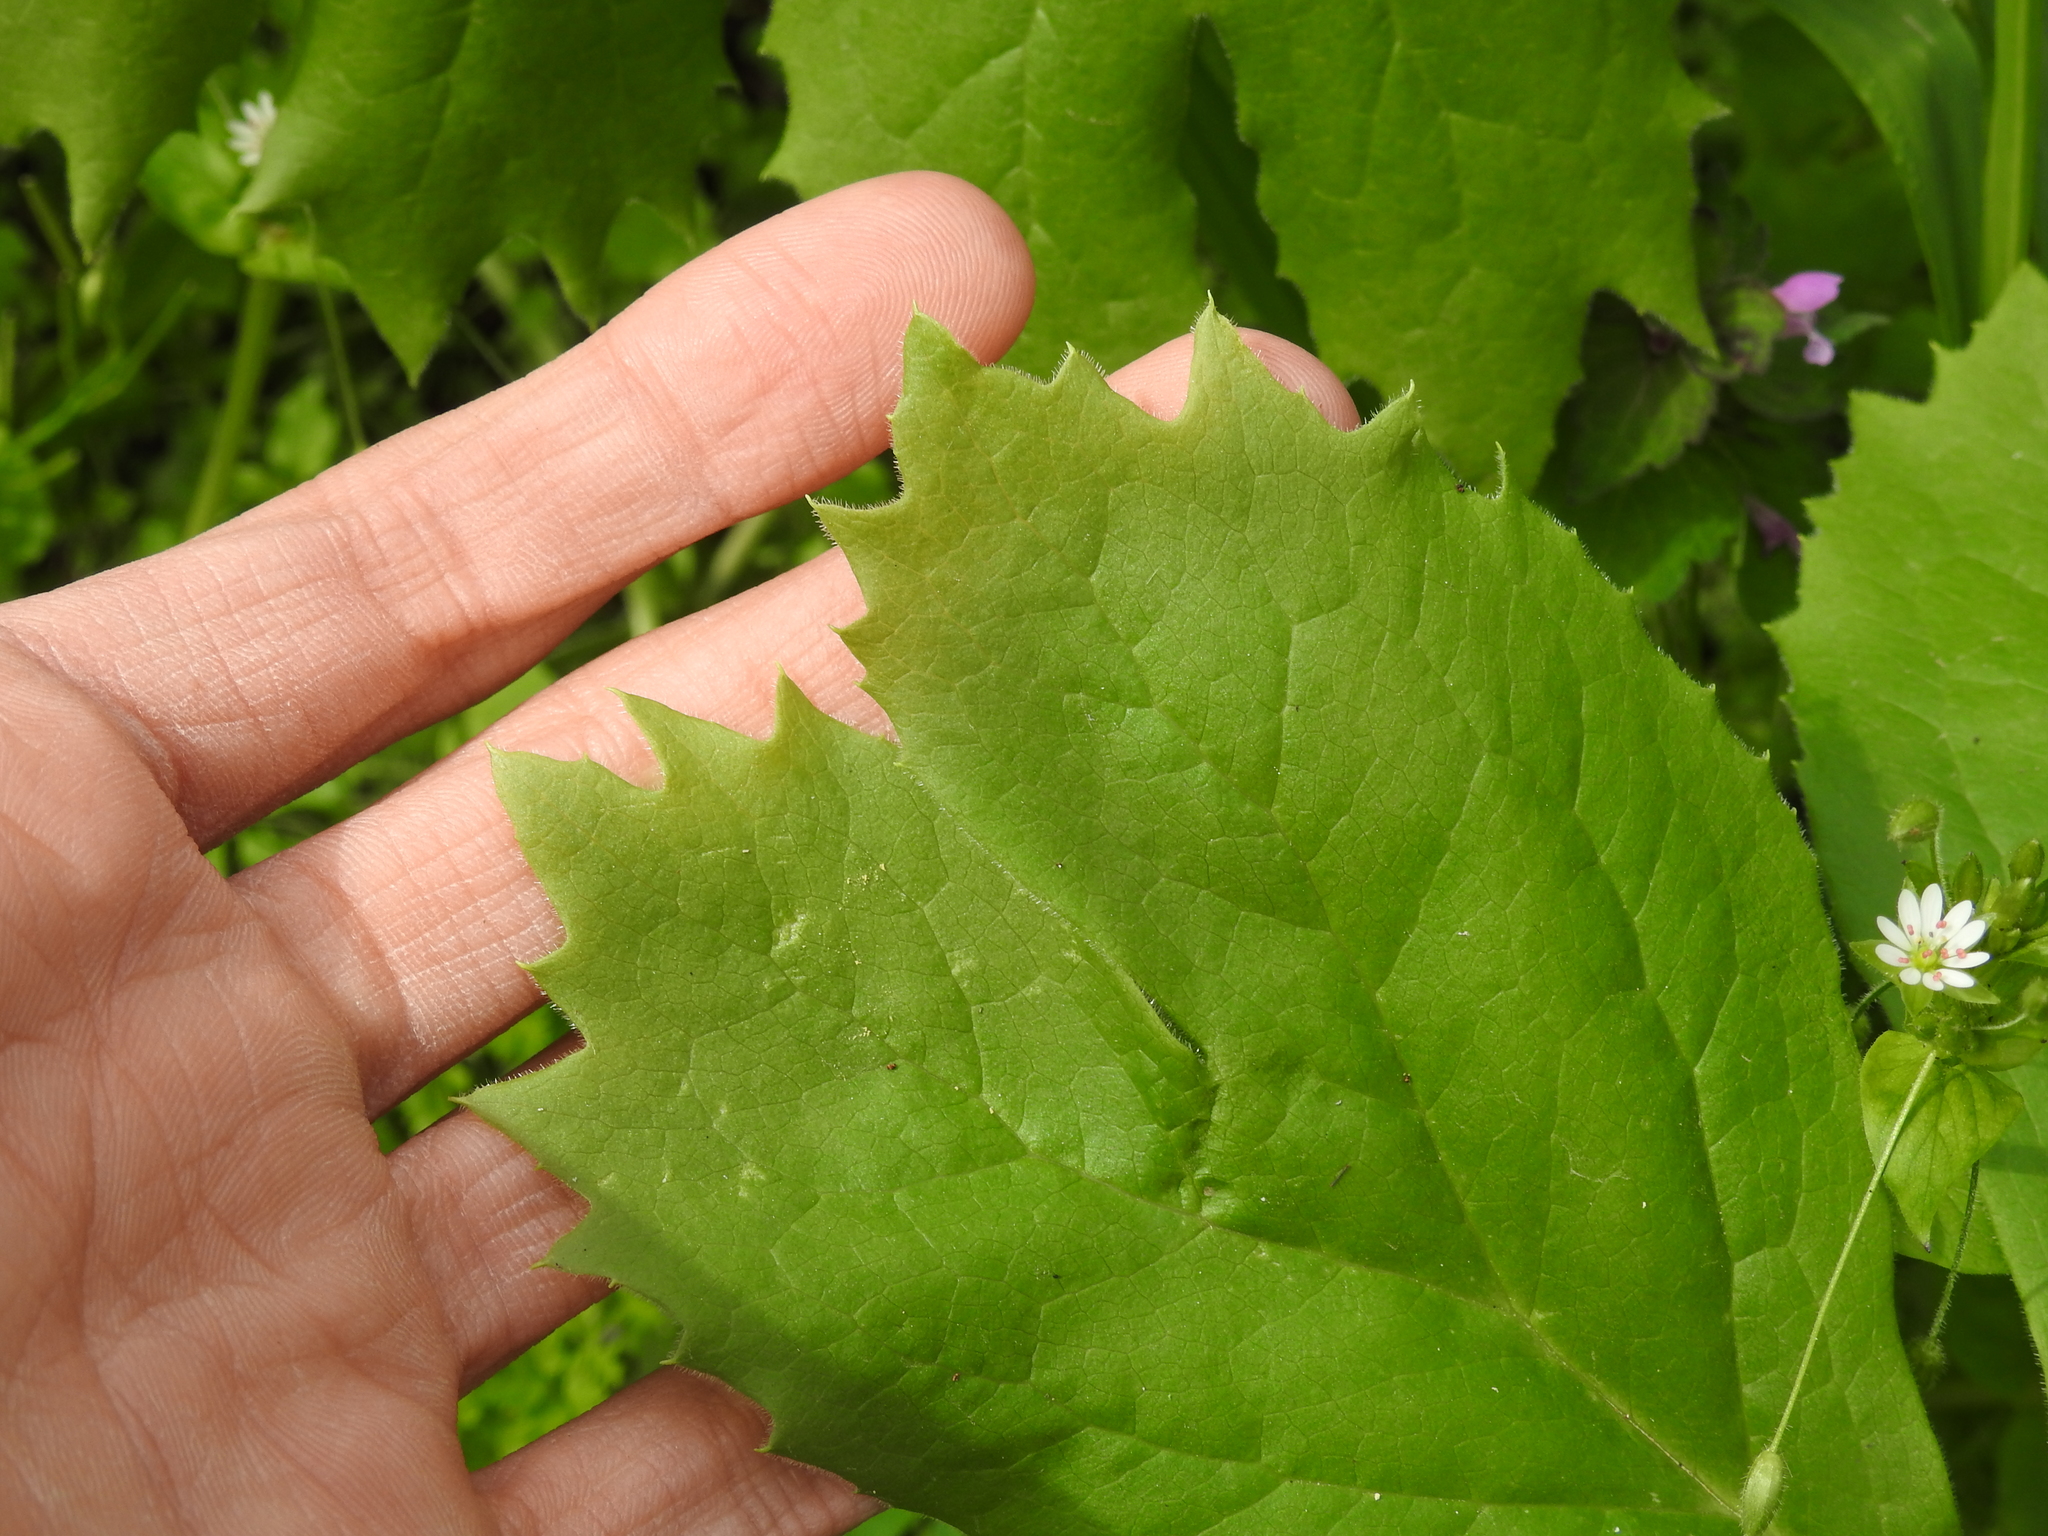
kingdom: Plantae
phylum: Tracheophyta
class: Magnoliopsida
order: Ranunculales
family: Berberidaceae
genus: Podophyllum
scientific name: Podophyllum peltatum
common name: Wild mandrake
